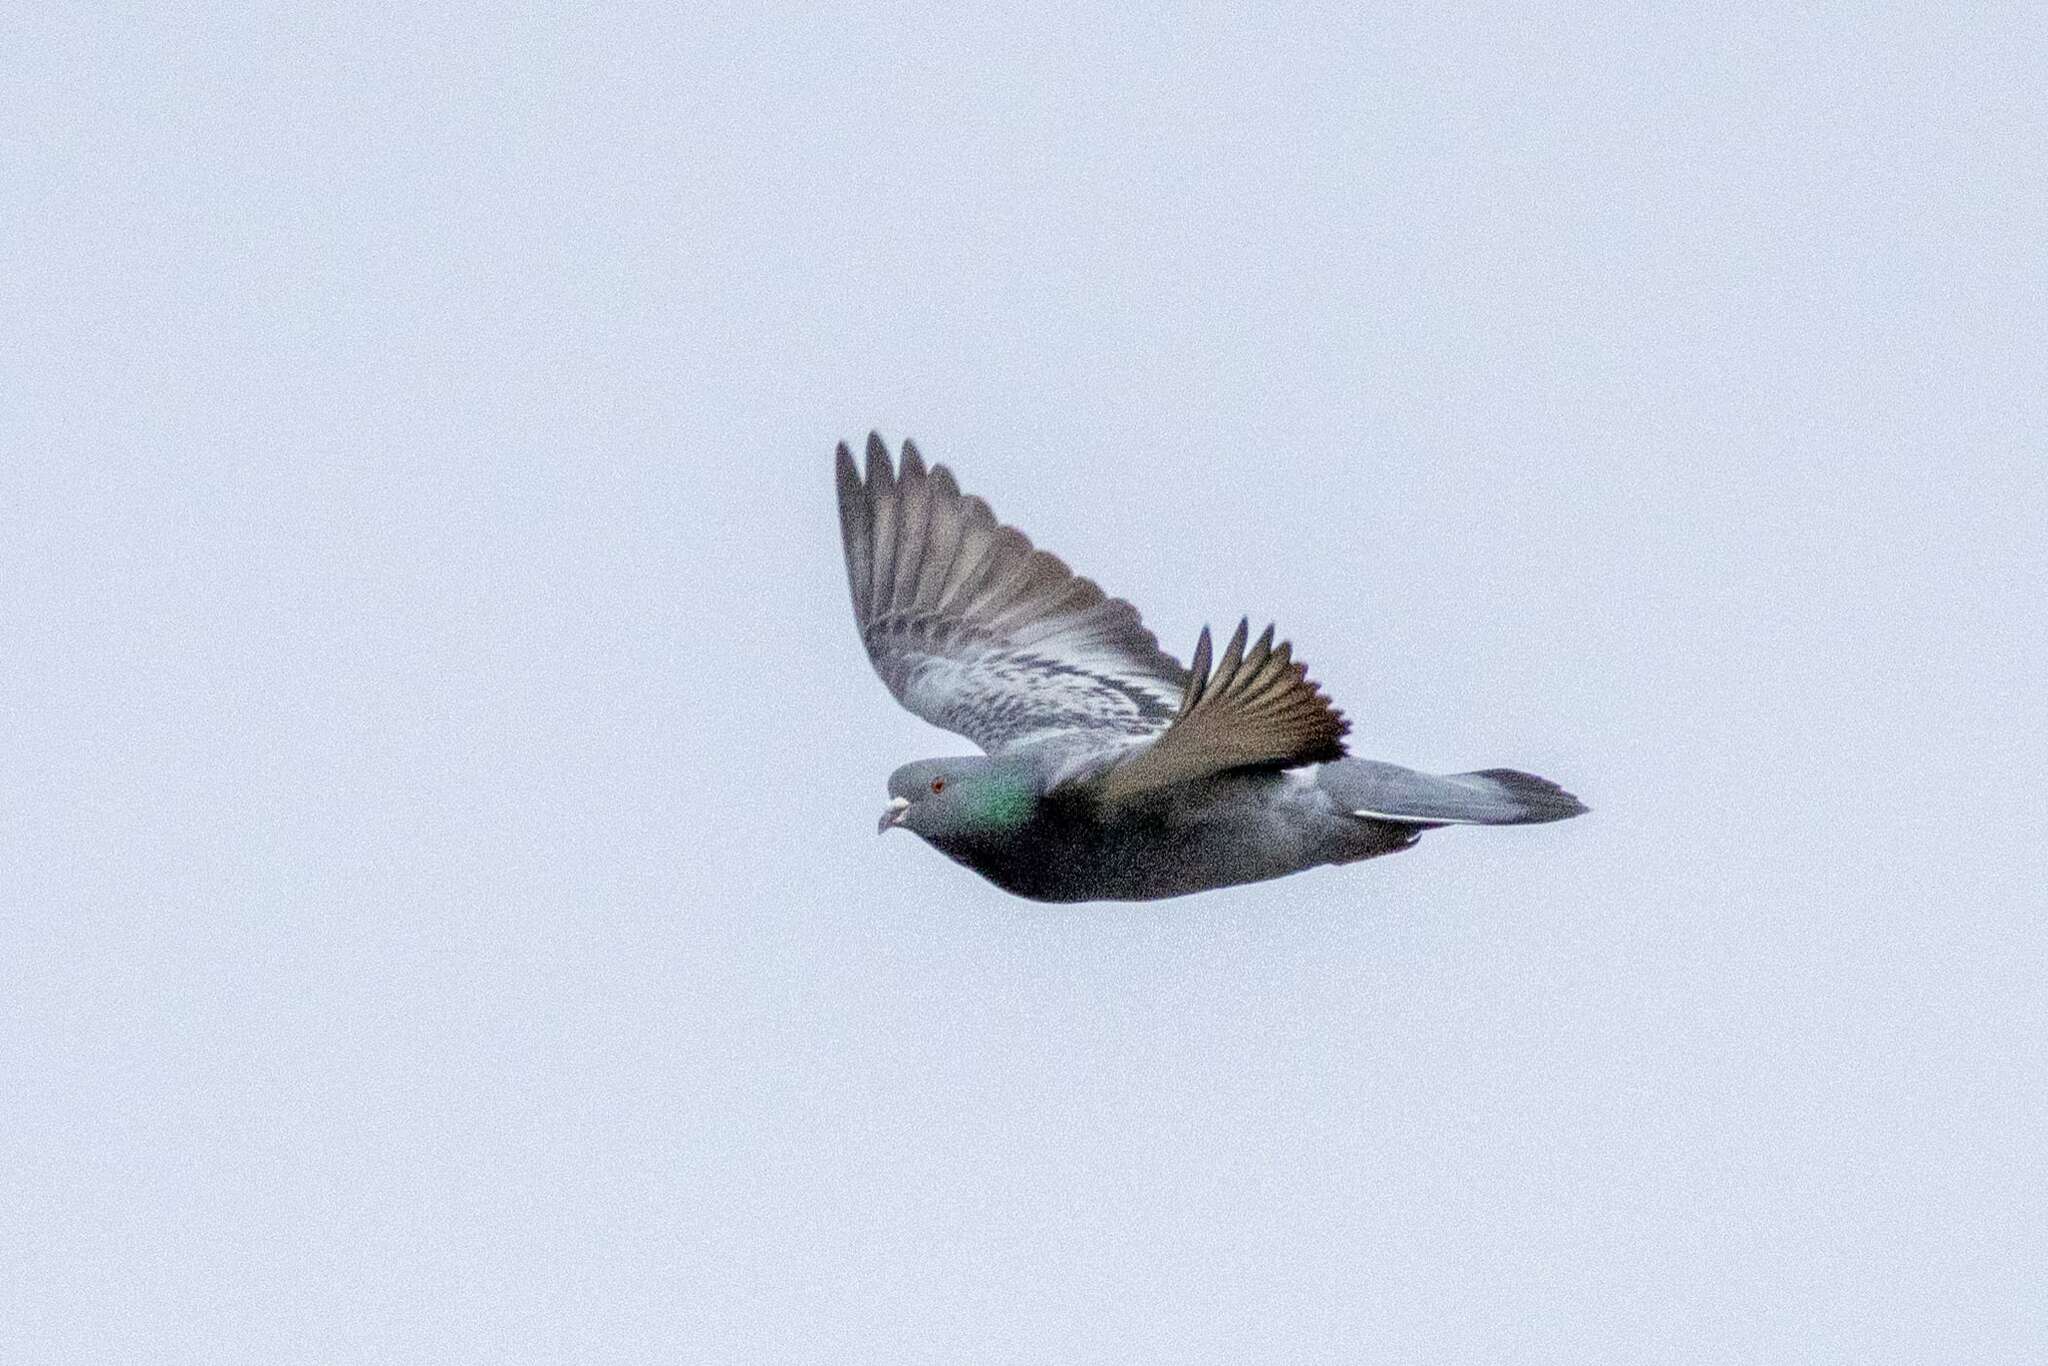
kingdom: Animalia
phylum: Chordata
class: Aves
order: Columbiformes
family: Columbidae
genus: Columba
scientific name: Columba livia
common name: Rock pigeon
